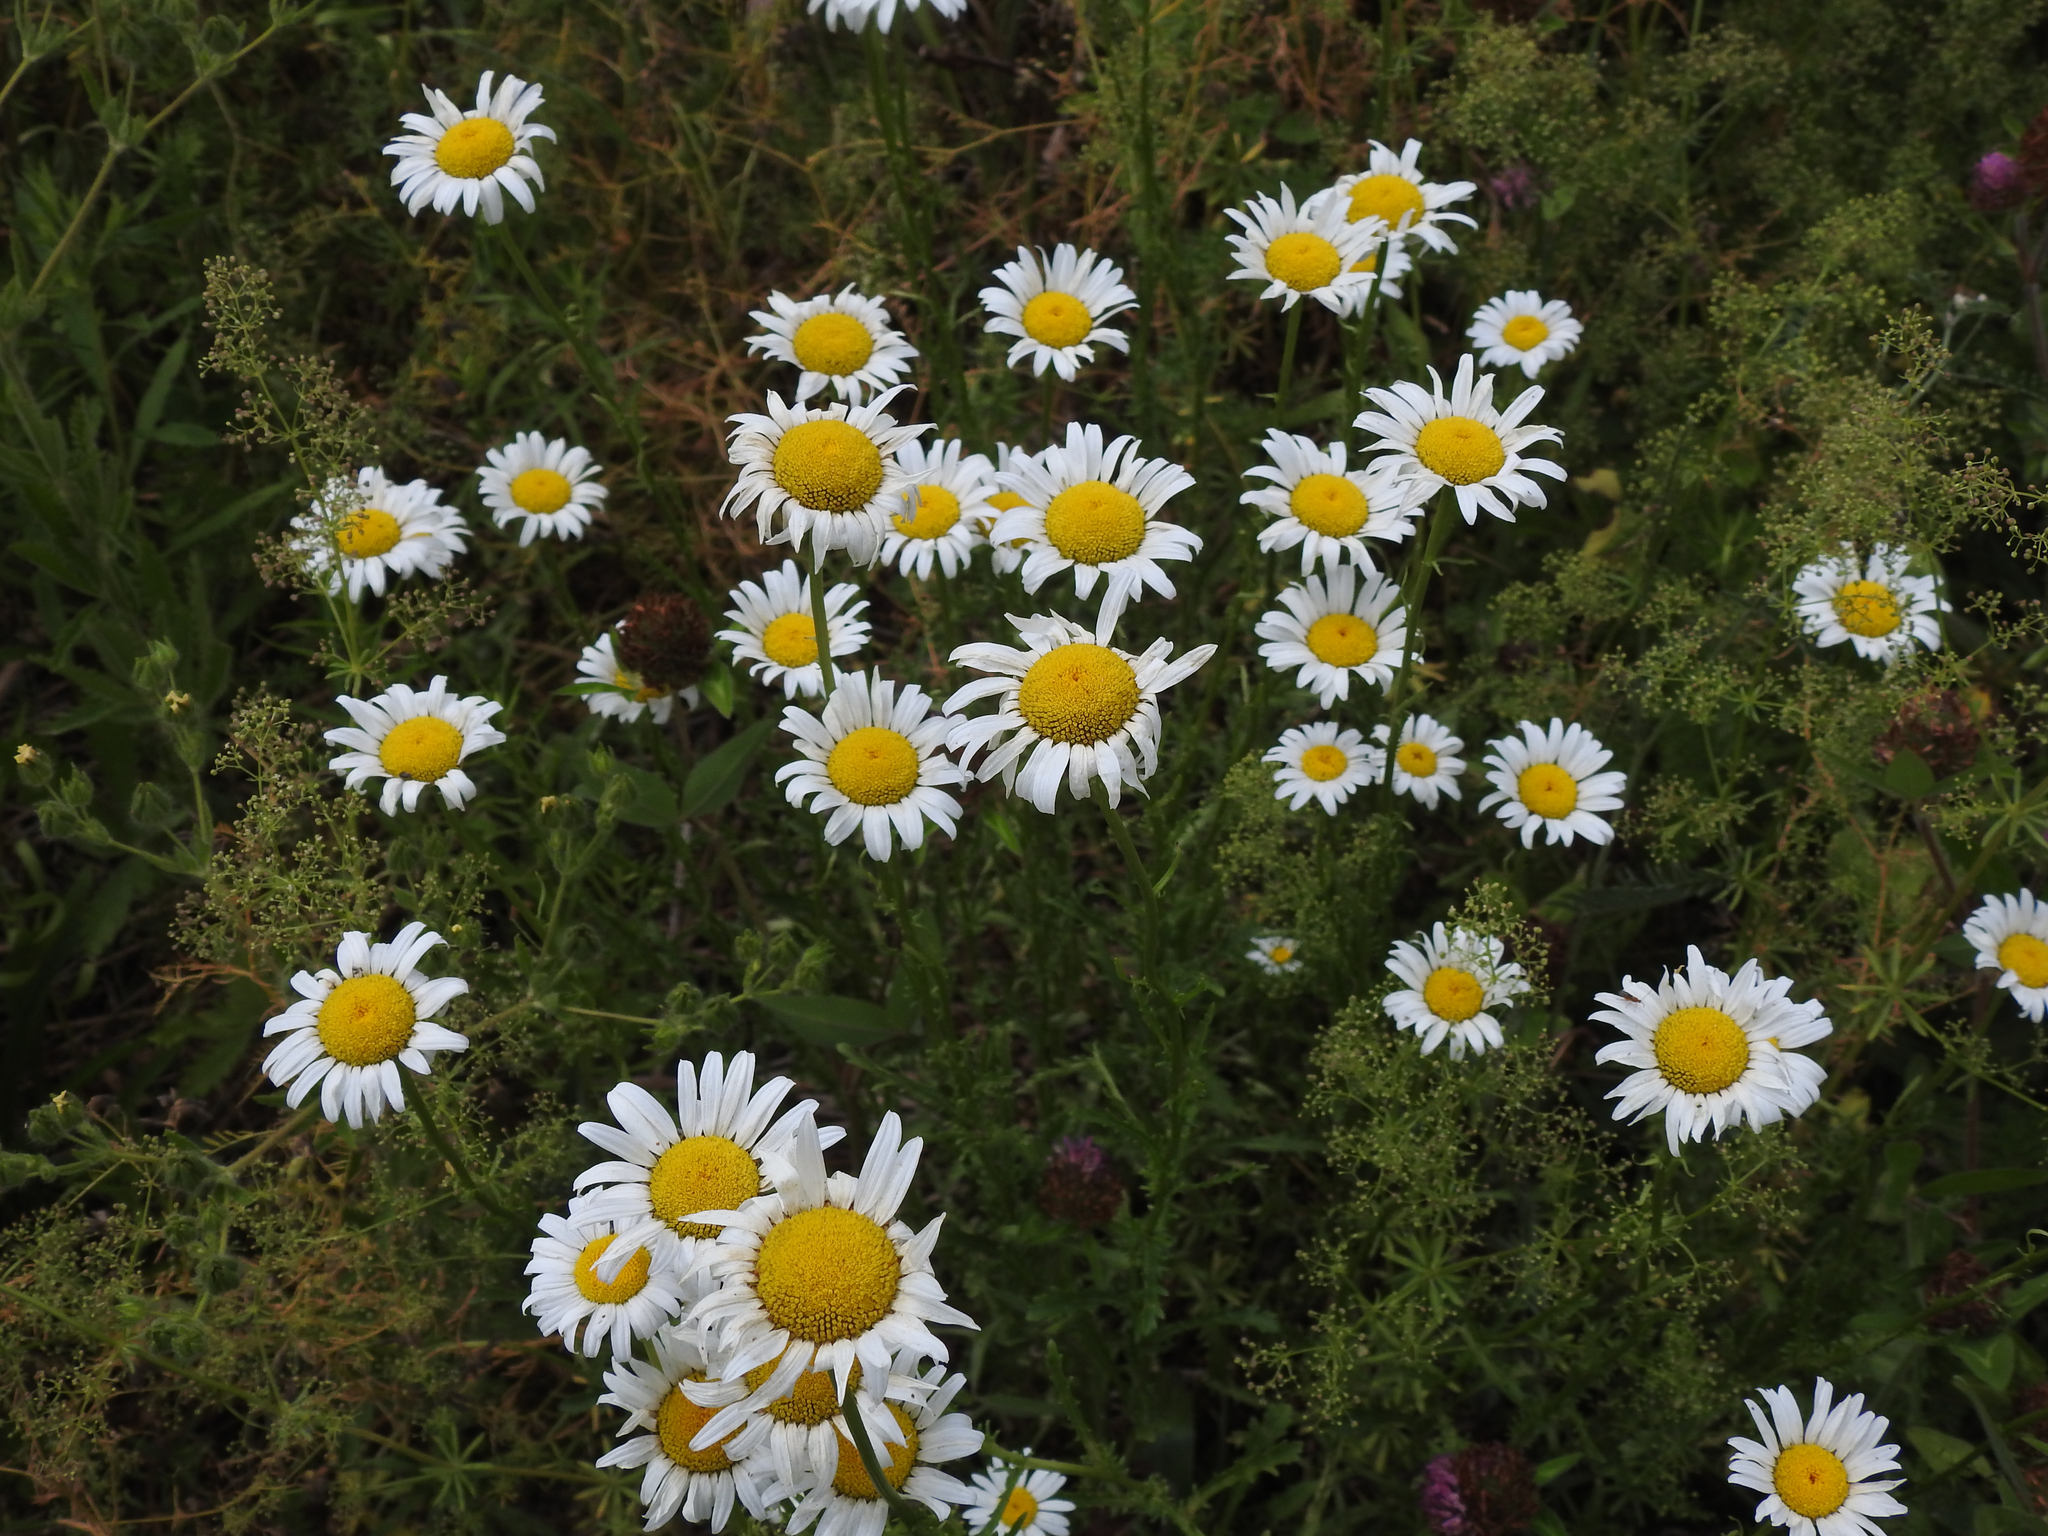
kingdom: Plantae
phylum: Tracheophyta
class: Magnoliopsida
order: Asterales
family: Asteraceae
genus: Leucanthemum
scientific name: Leucanthemum vulgare
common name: Oxeye daisy
